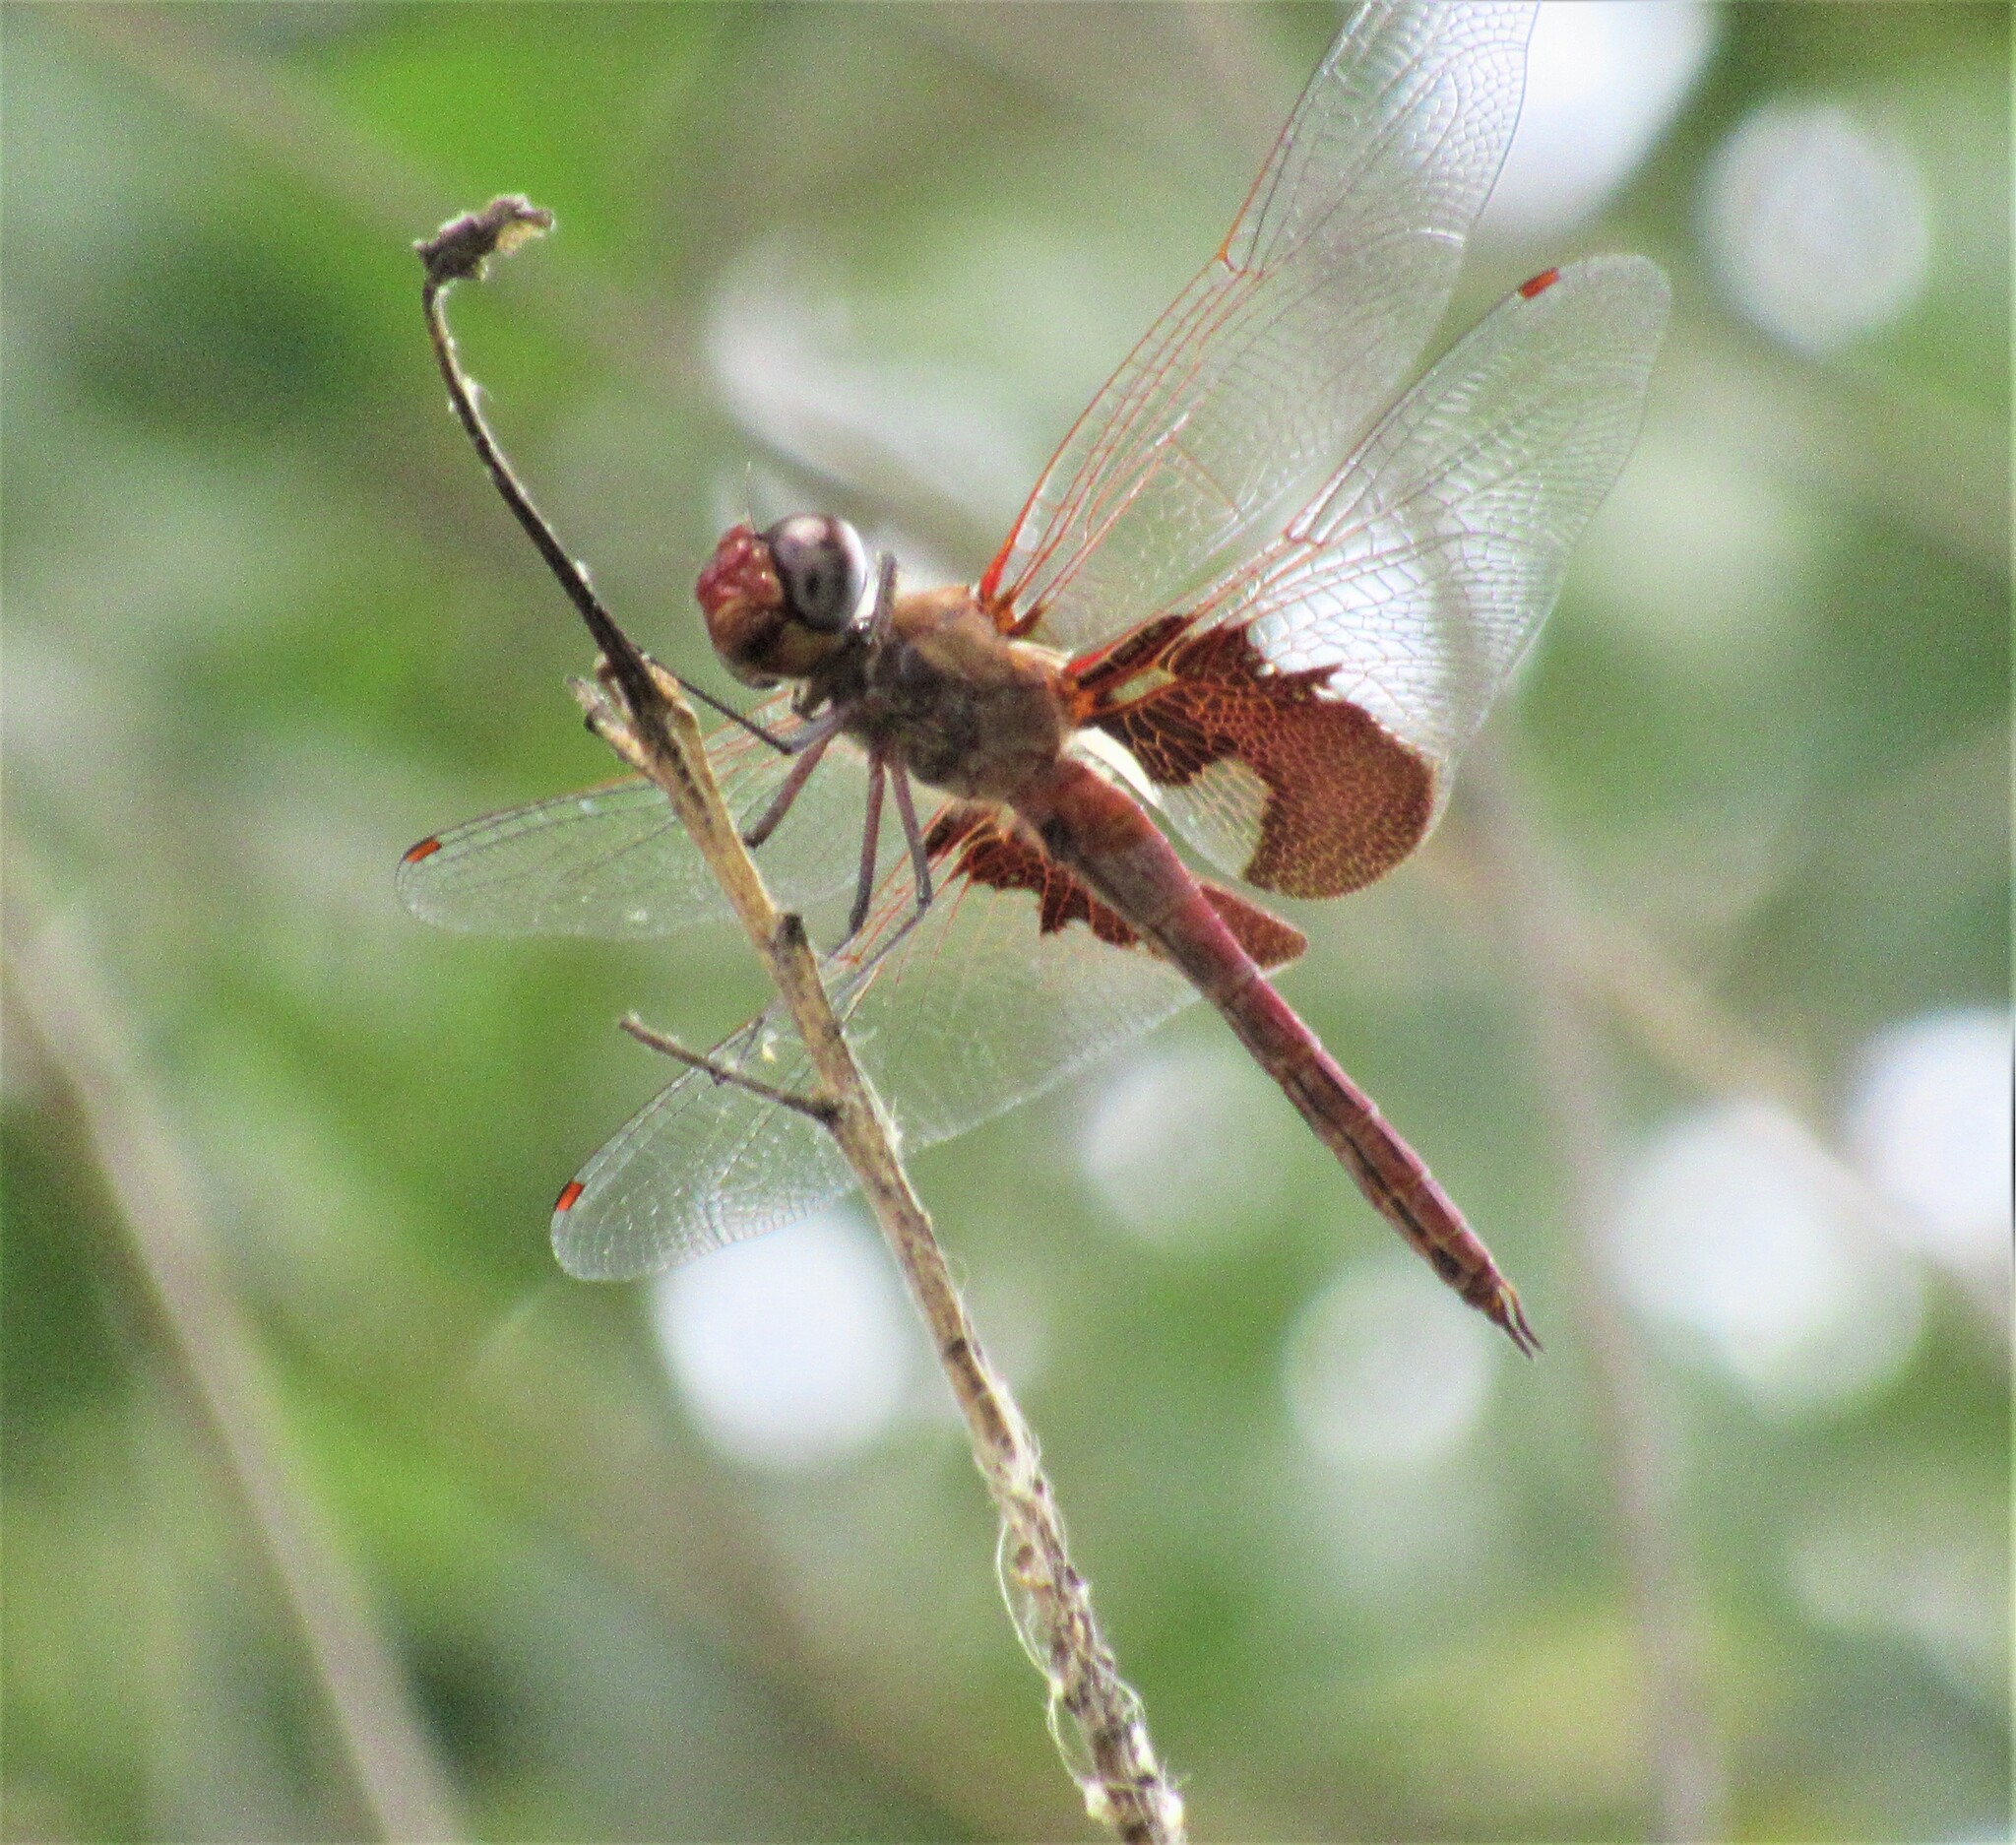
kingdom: Animalia
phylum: Arthropoda
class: Insecta
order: Odonata
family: Libellulidae
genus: Tramea
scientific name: Tramea onusta
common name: Red saddlebags
